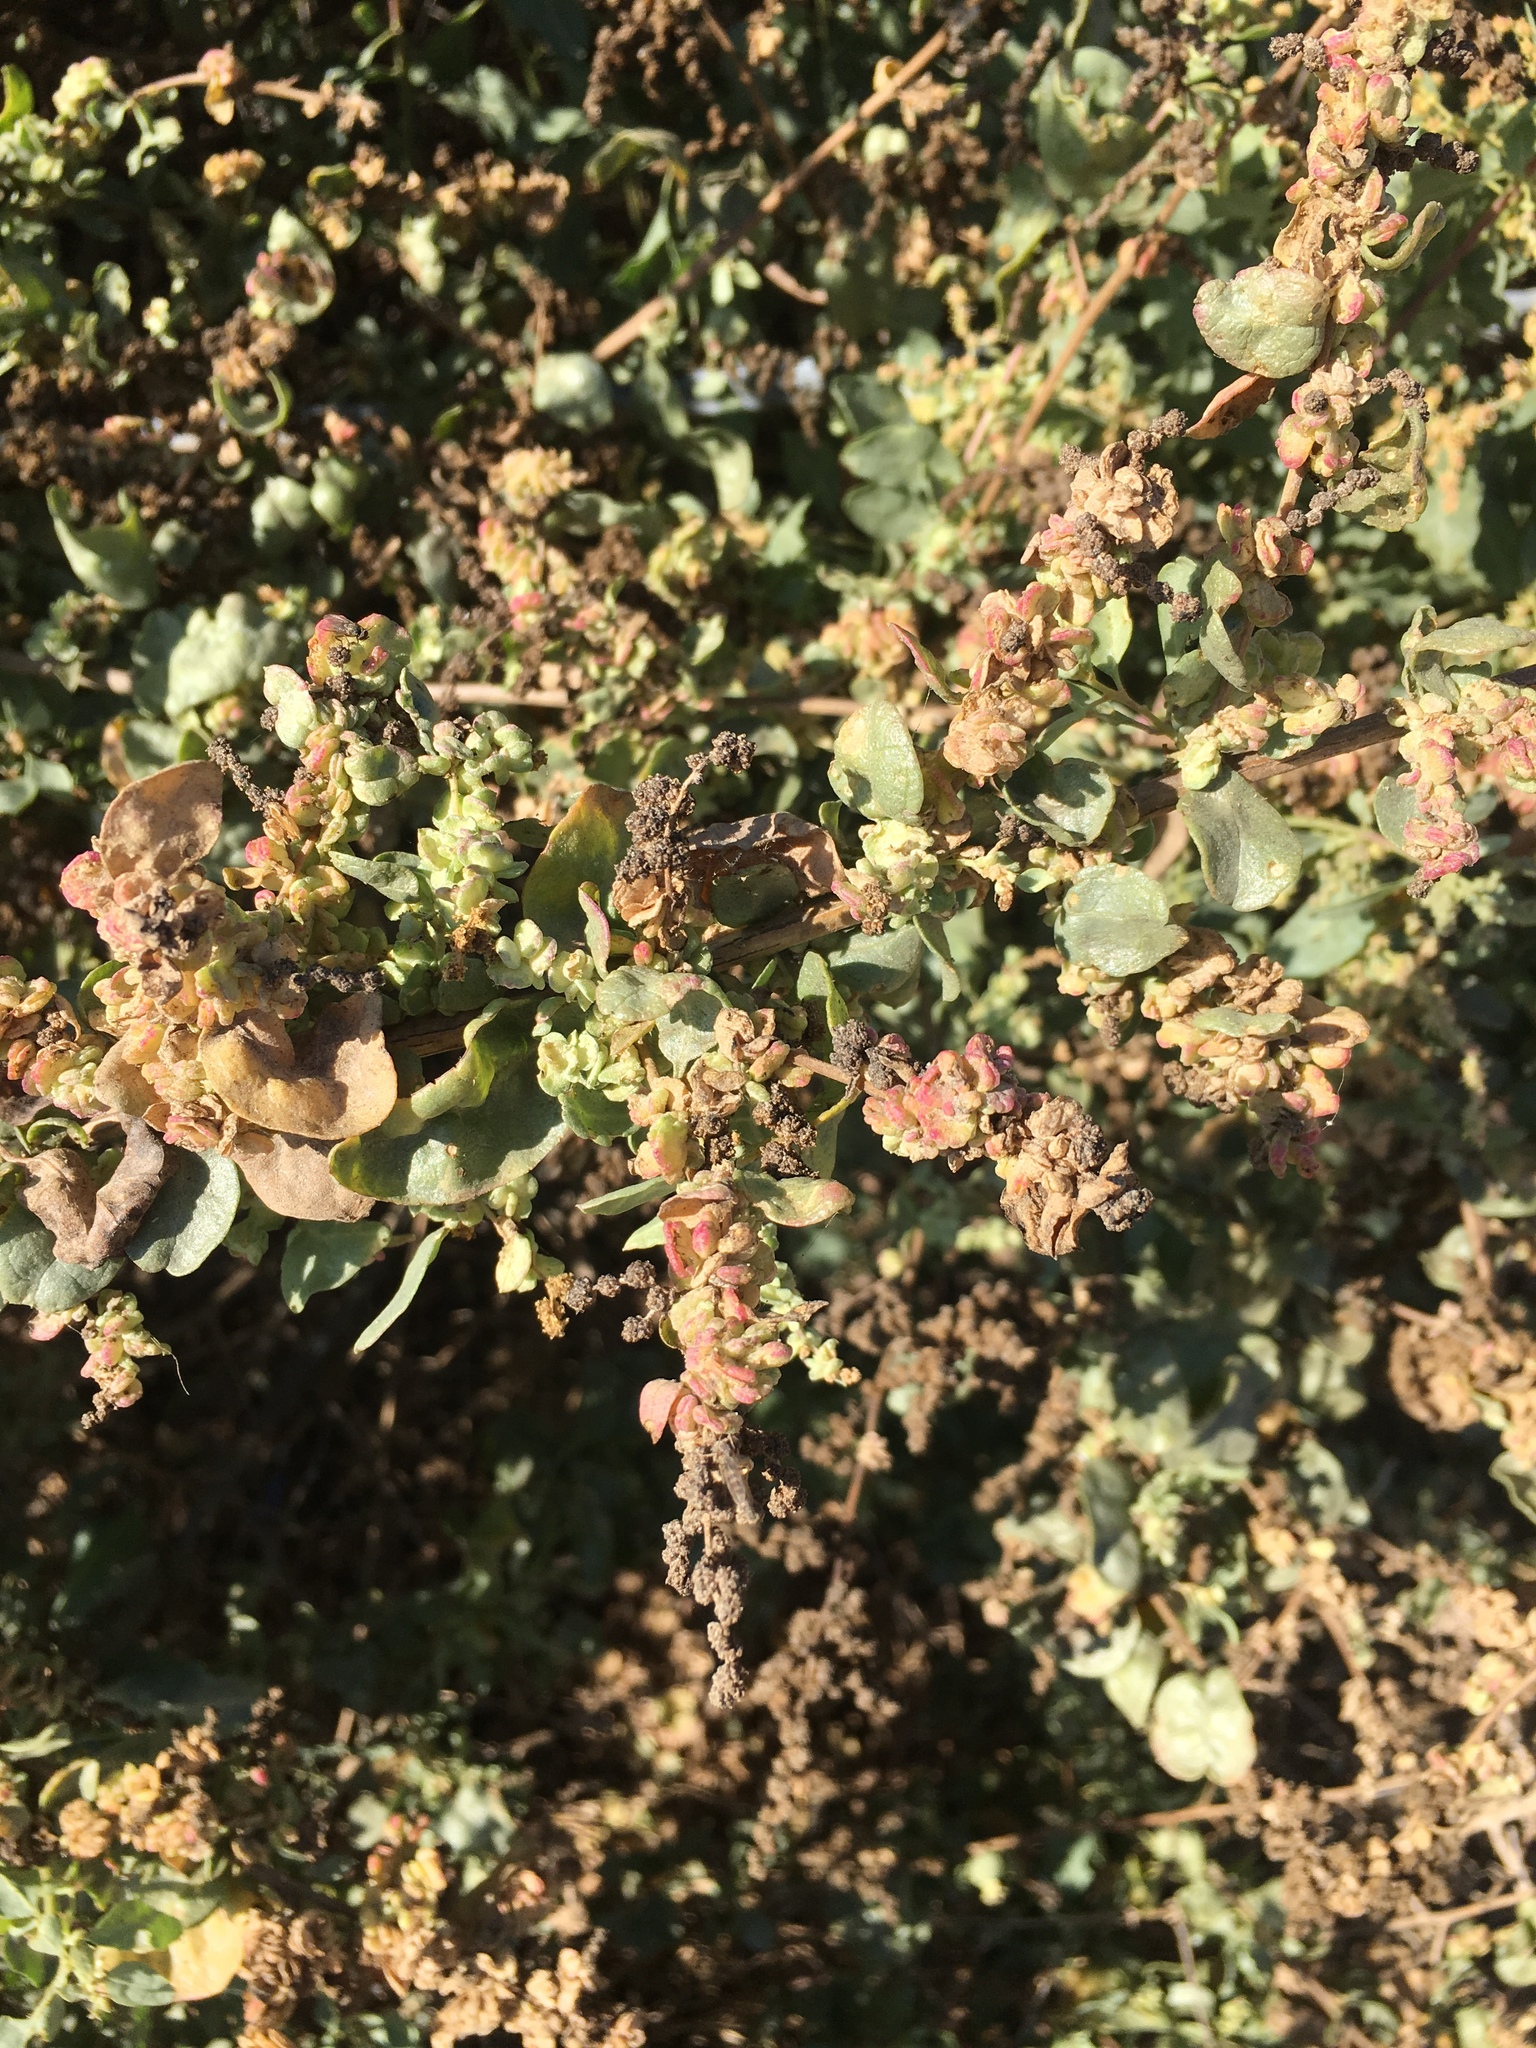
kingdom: Plantae
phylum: Tracheophyta
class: Magnoliopsida
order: Caryophyllales
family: Amaranthaceae
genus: Atriplex
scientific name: Atriplex lentiformis
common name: Big saltbush
